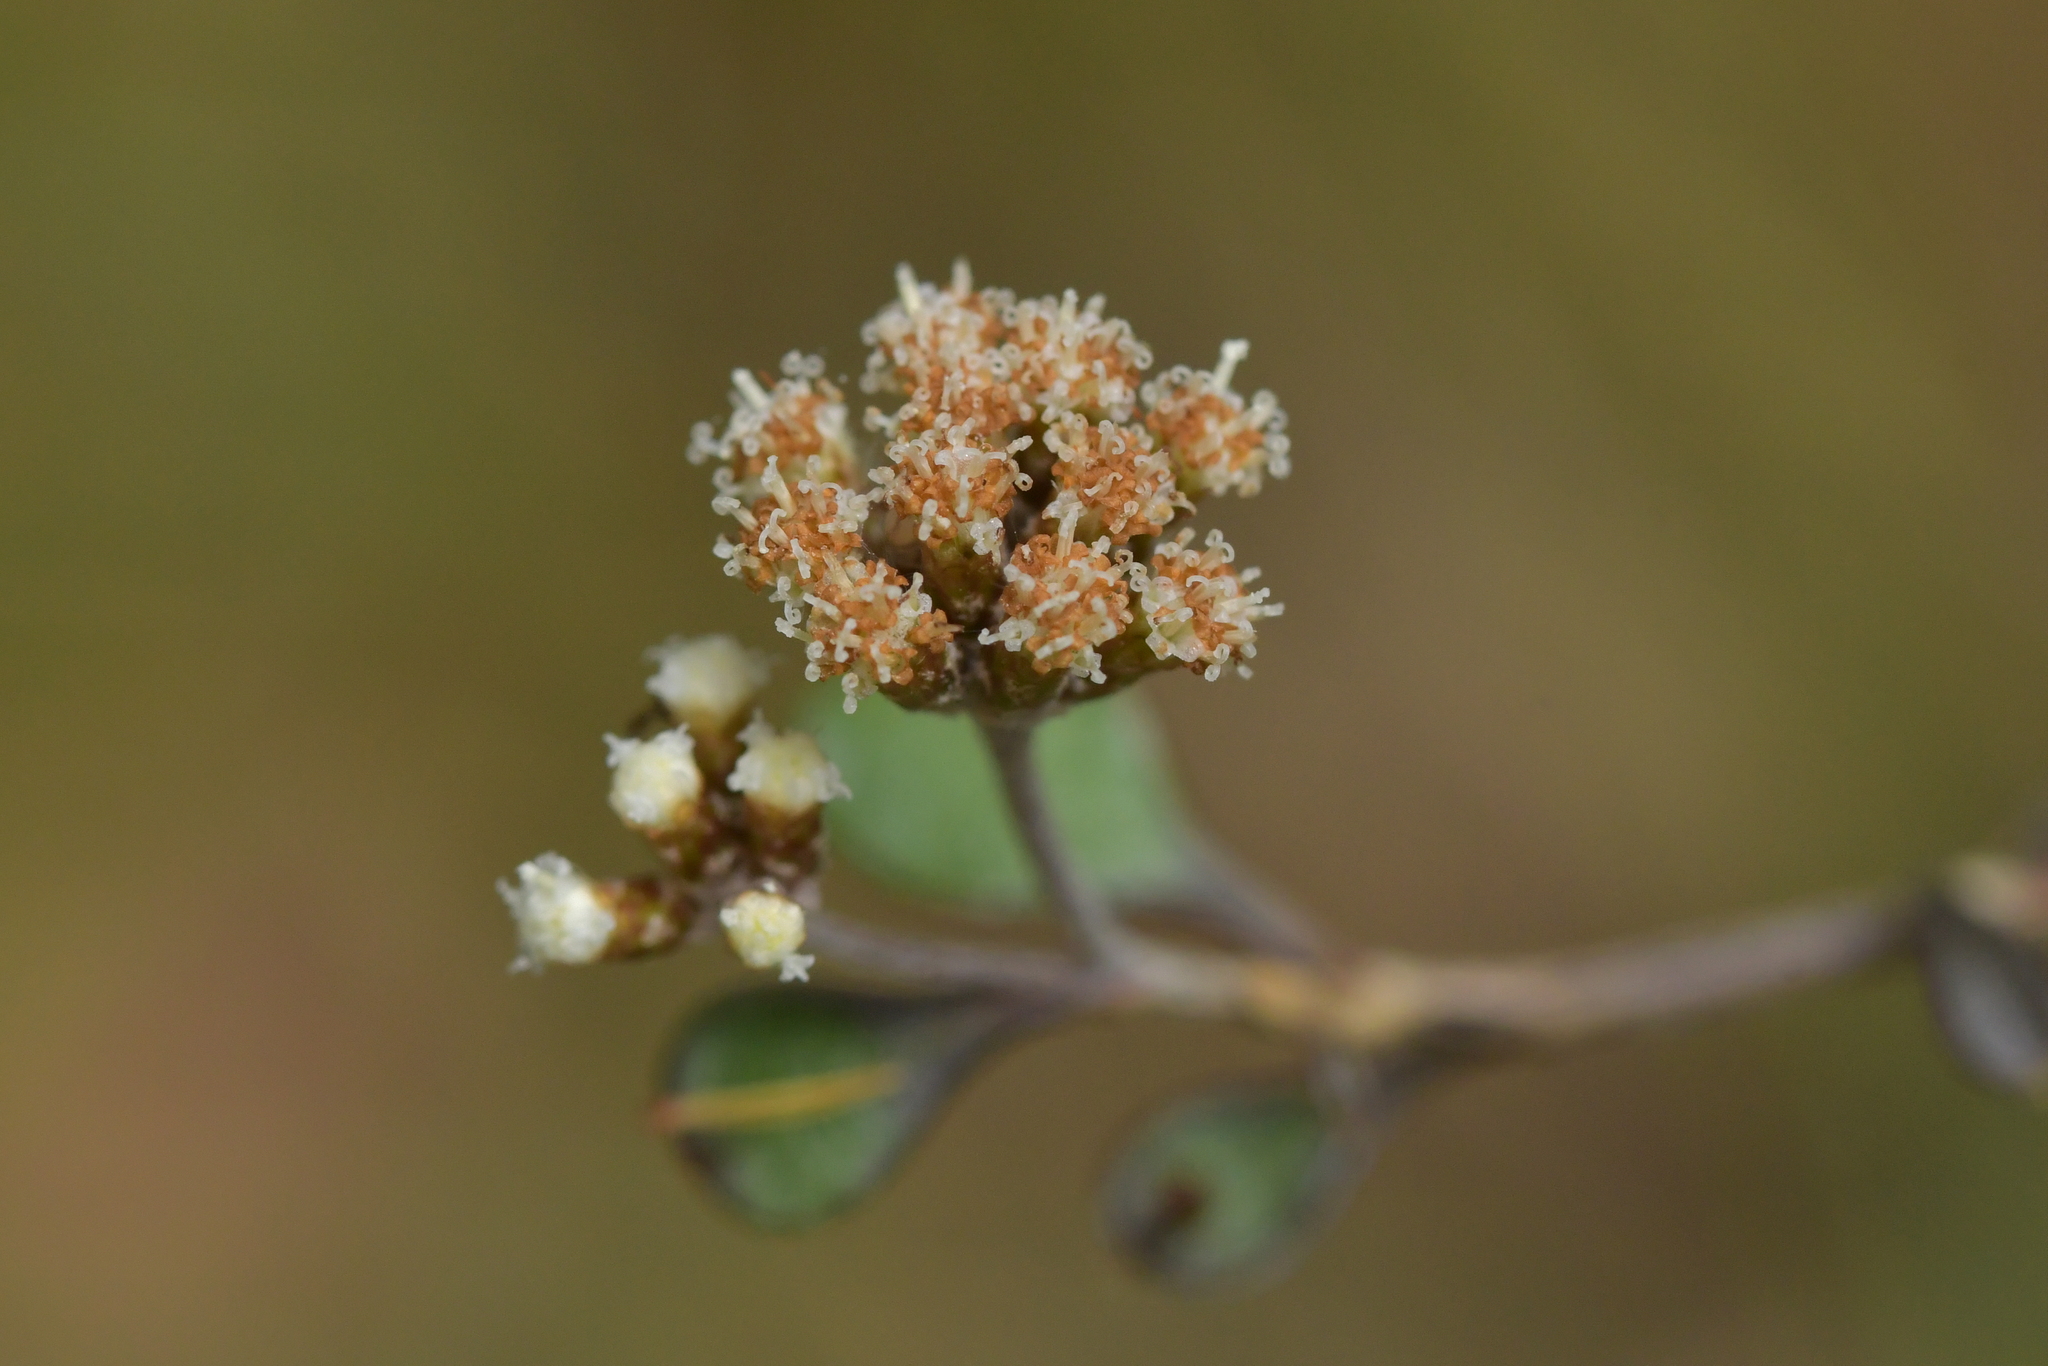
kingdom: Plantae
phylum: Tracheophyta
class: Magnoliopsida
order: Asterales
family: Asteraceae
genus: Ozothamnus
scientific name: Ozothamnus glomeratus
